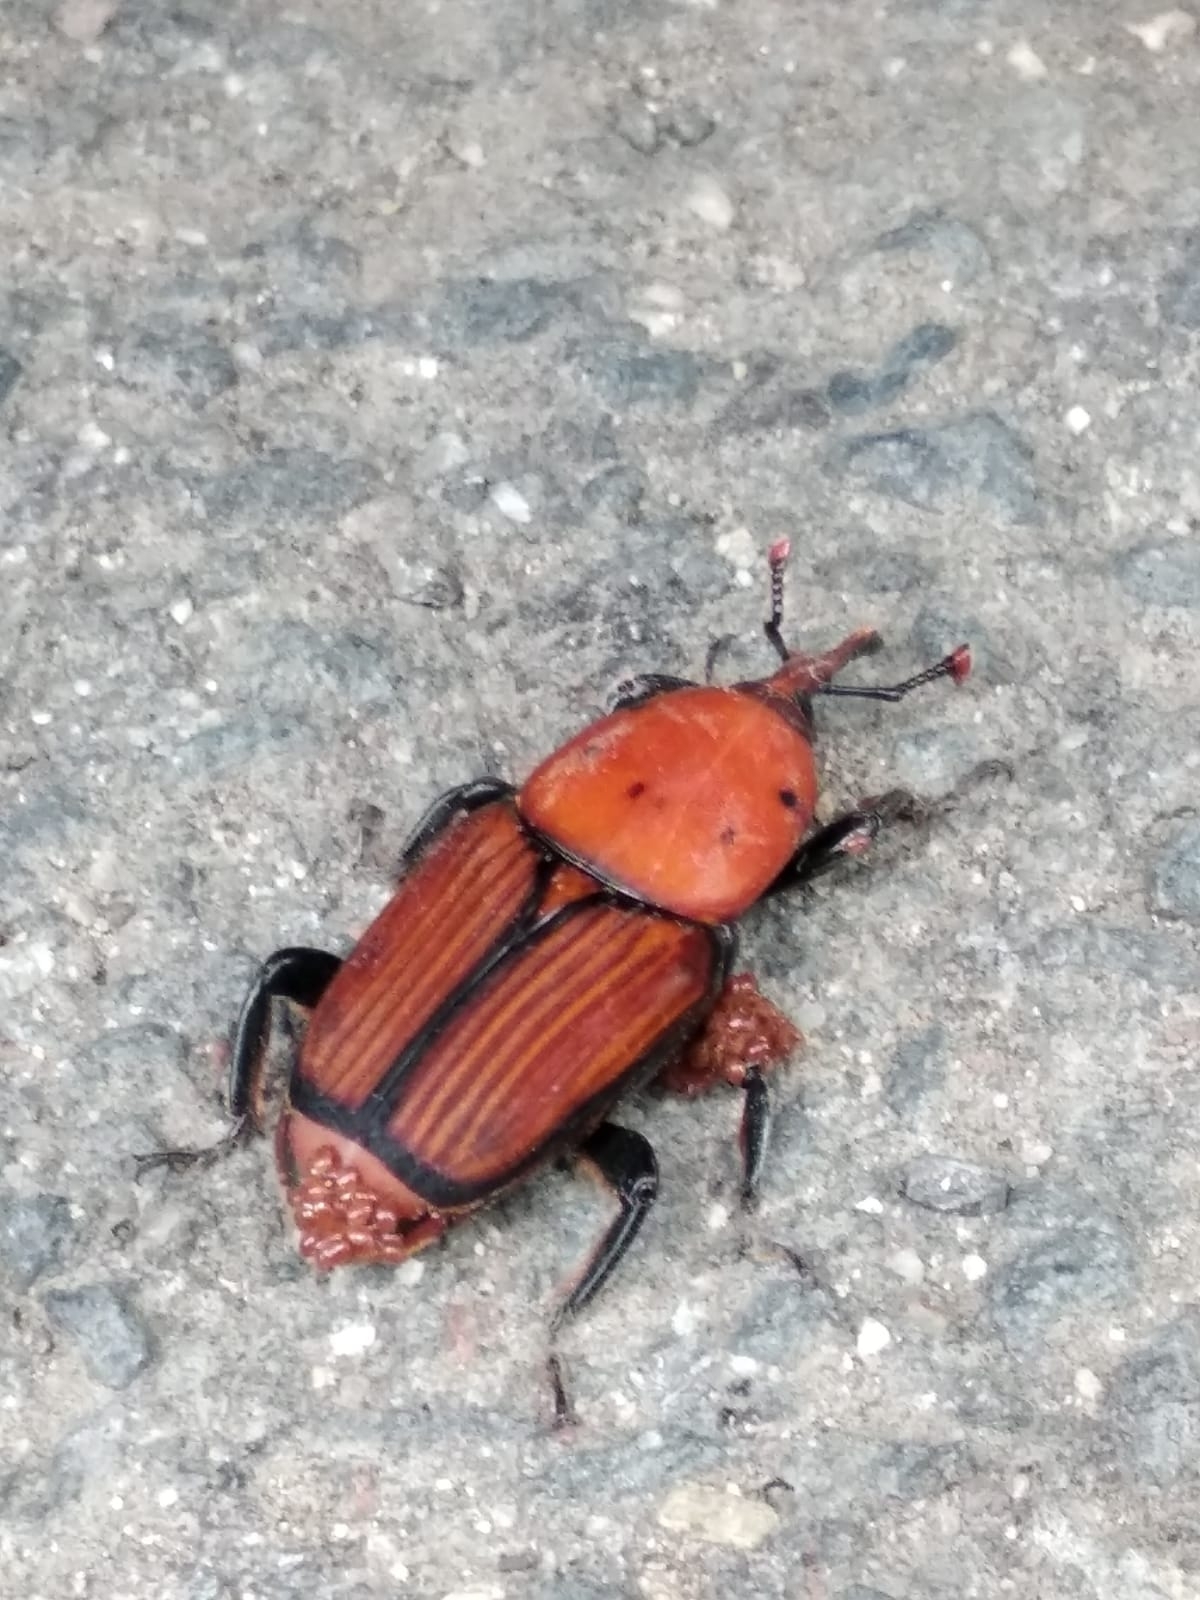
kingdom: Animalia
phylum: Arthropoda
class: Insecta
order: Coleoptera
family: Dryophthoridae
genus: Rhynchophorus
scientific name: Rhynchophorus ferrugineus
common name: Red palm weevil
